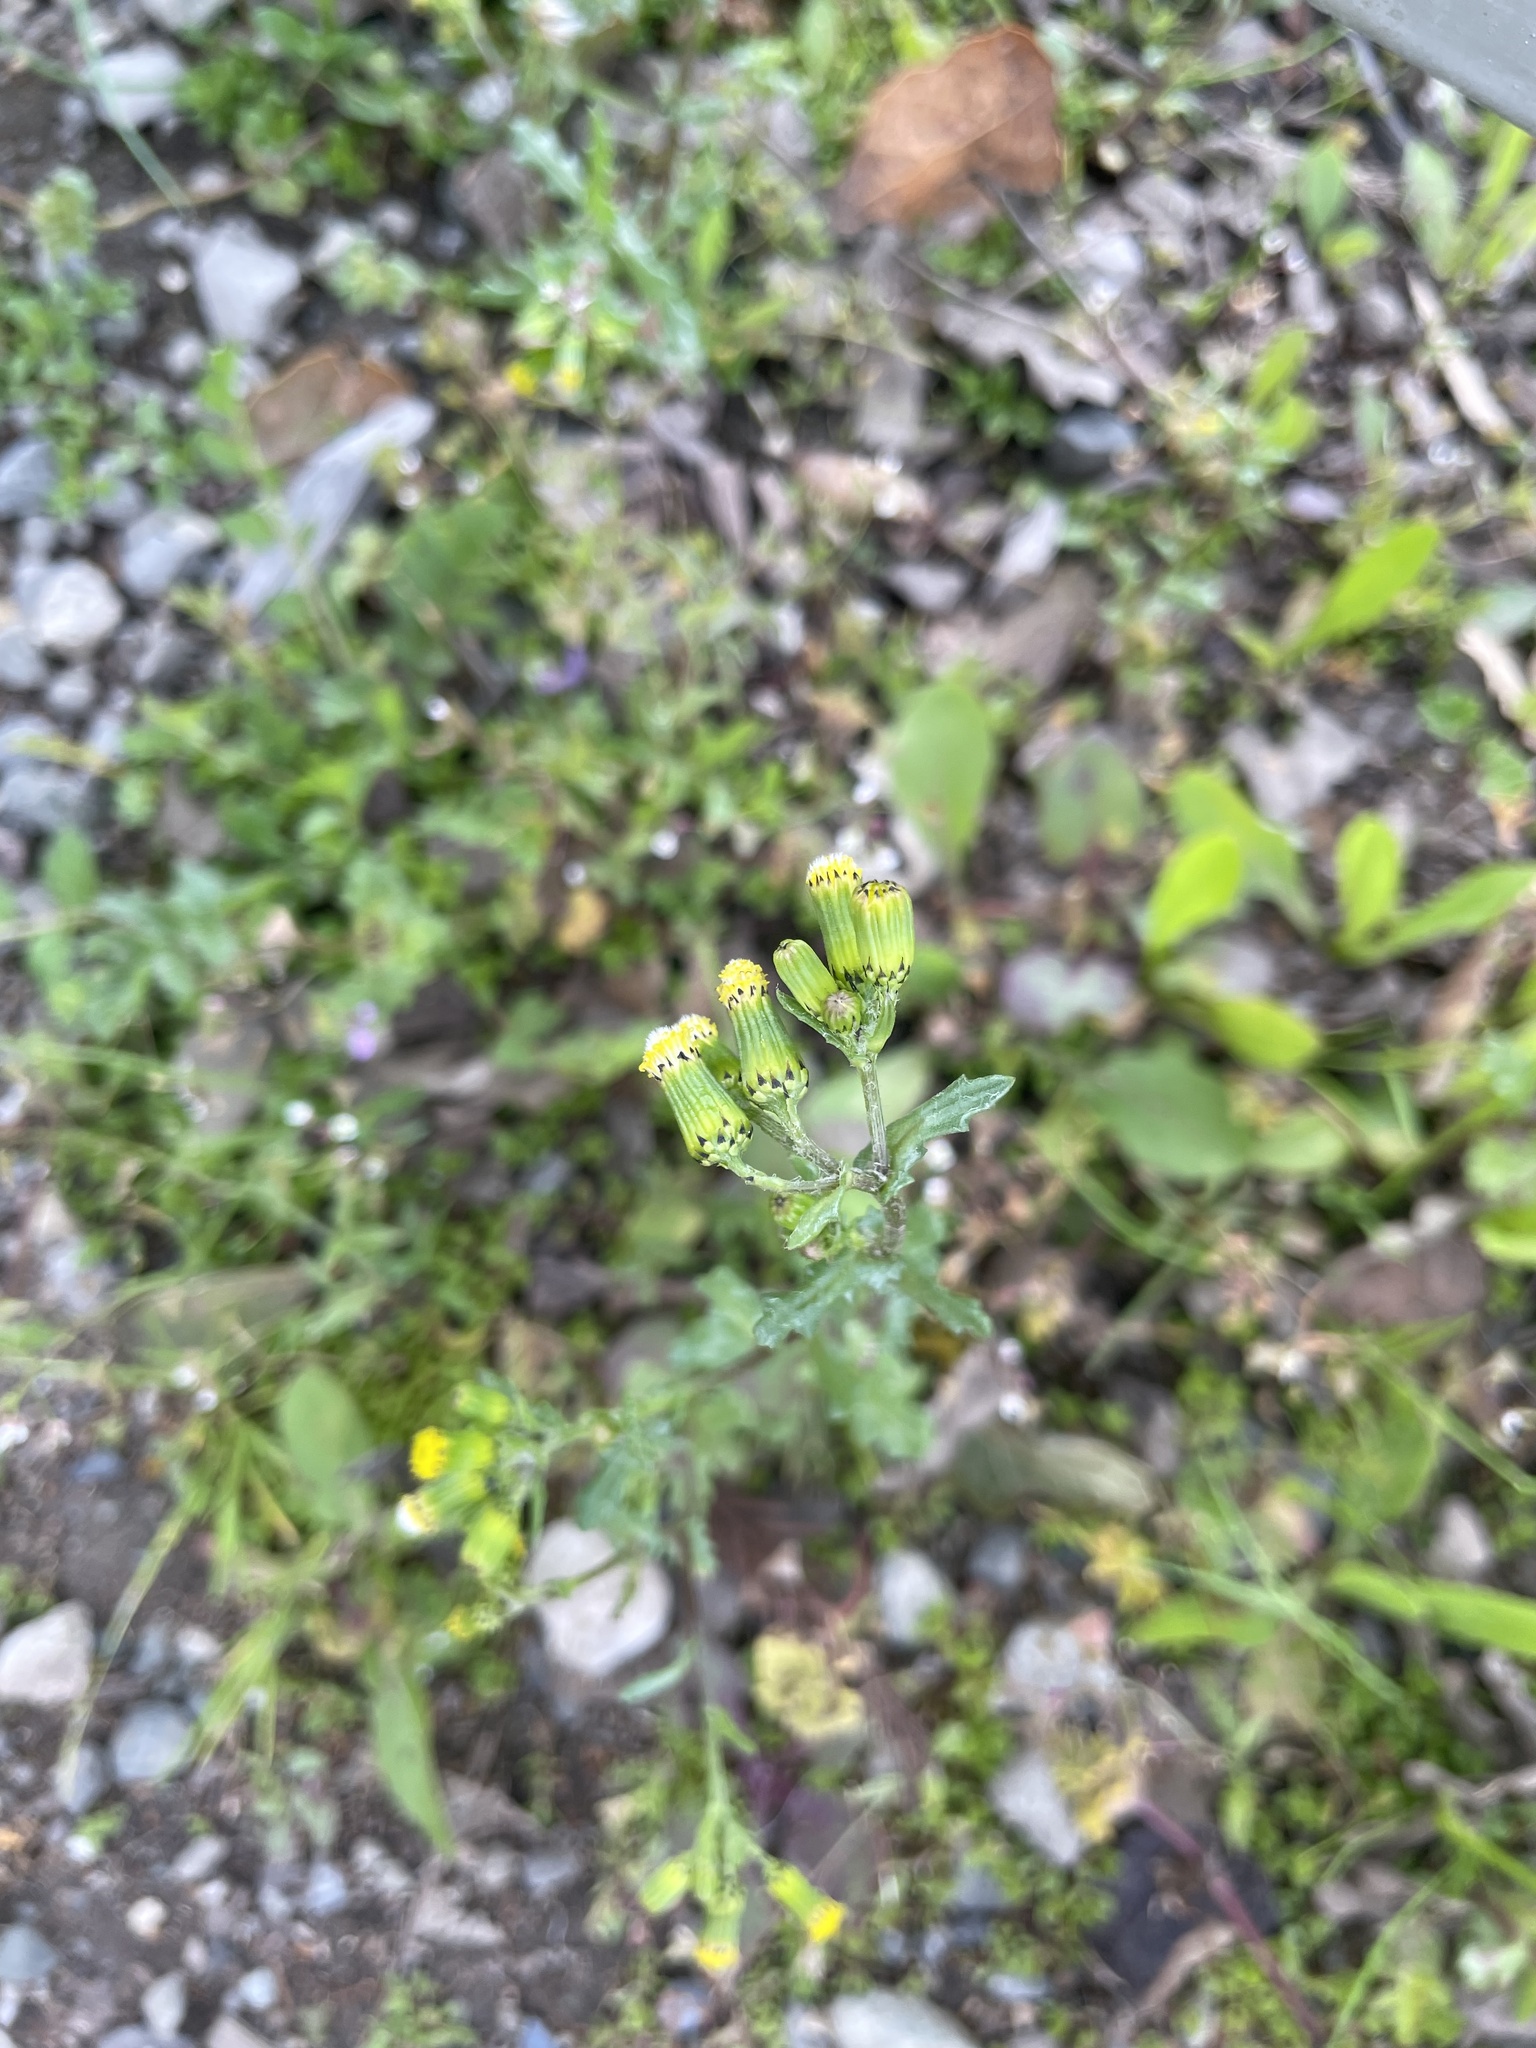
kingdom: Plantae
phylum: Tracheophyta
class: Magnoliopsida
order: Asterales
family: Asteraceae
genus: Senecio
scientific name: Senecio vulgaris
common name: Old-man-in-the-spring
